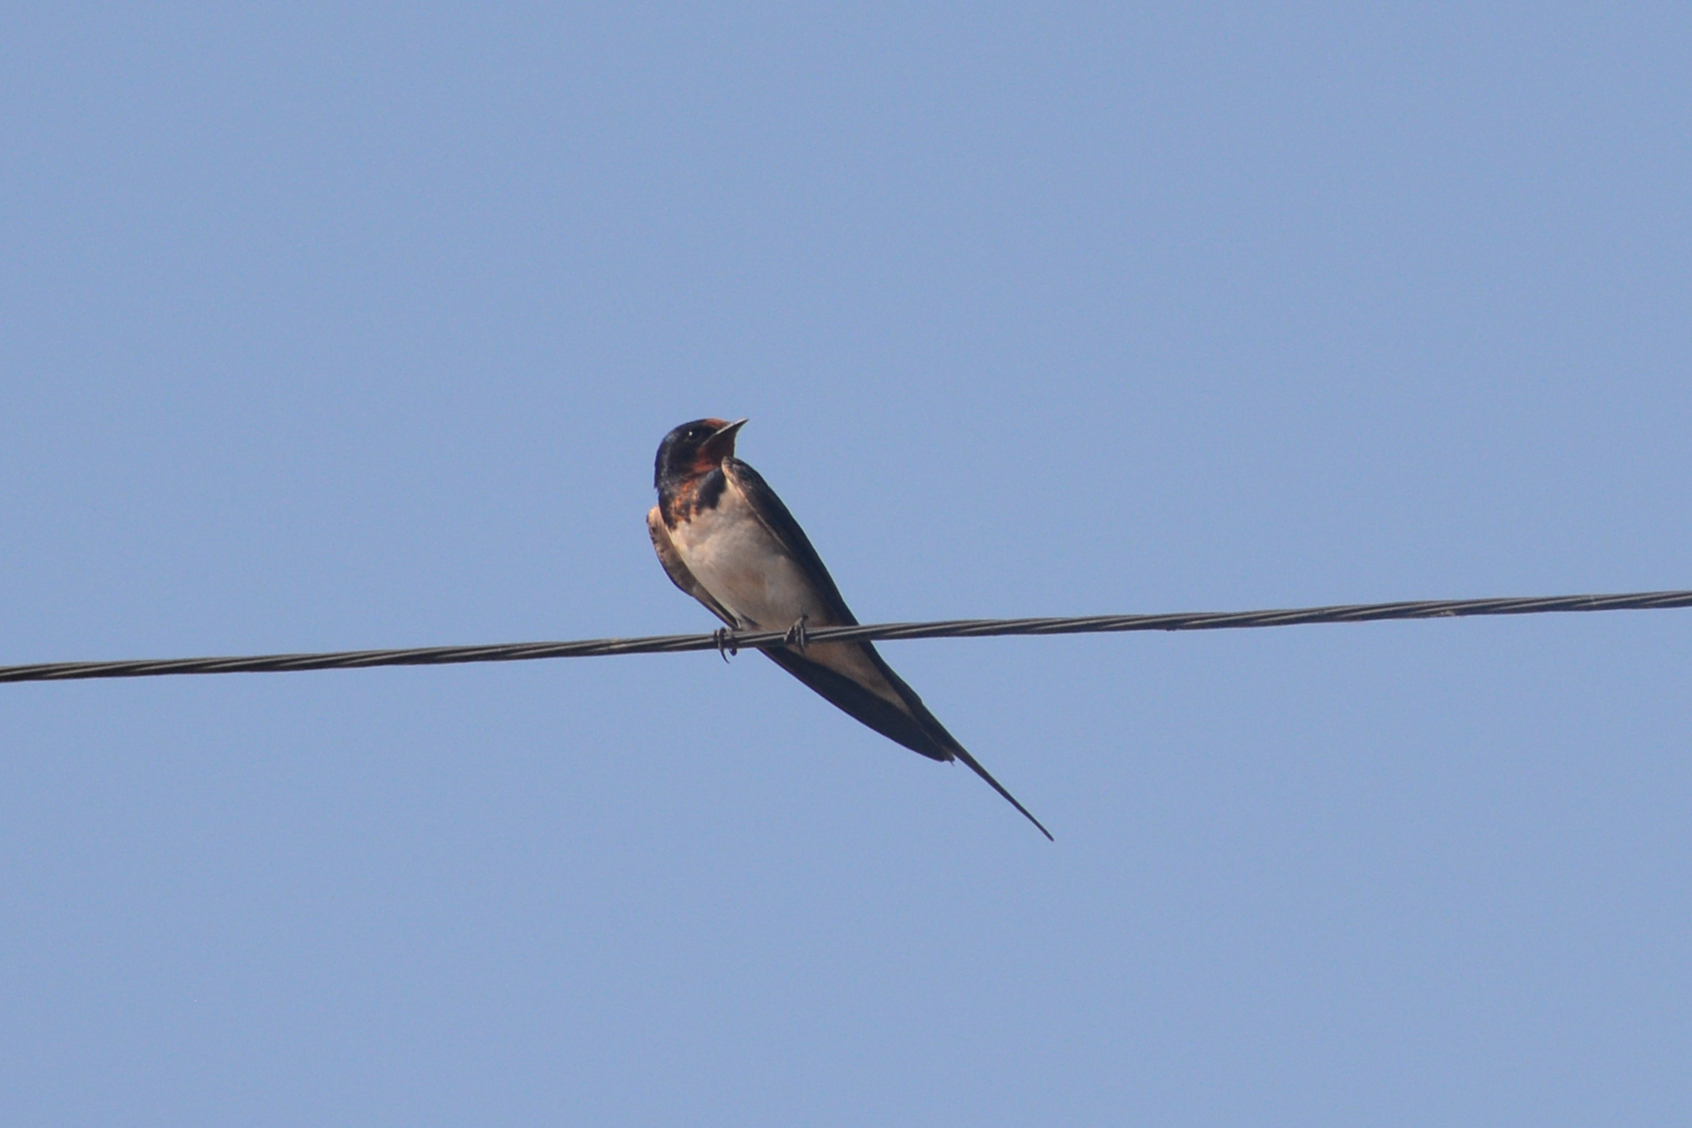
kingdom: Animalia
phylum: Chordata
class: Aves
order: Passeriformes
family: Hirundinidae
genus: Hirundo
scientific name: Hirundo rustica
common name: Barn swallow
